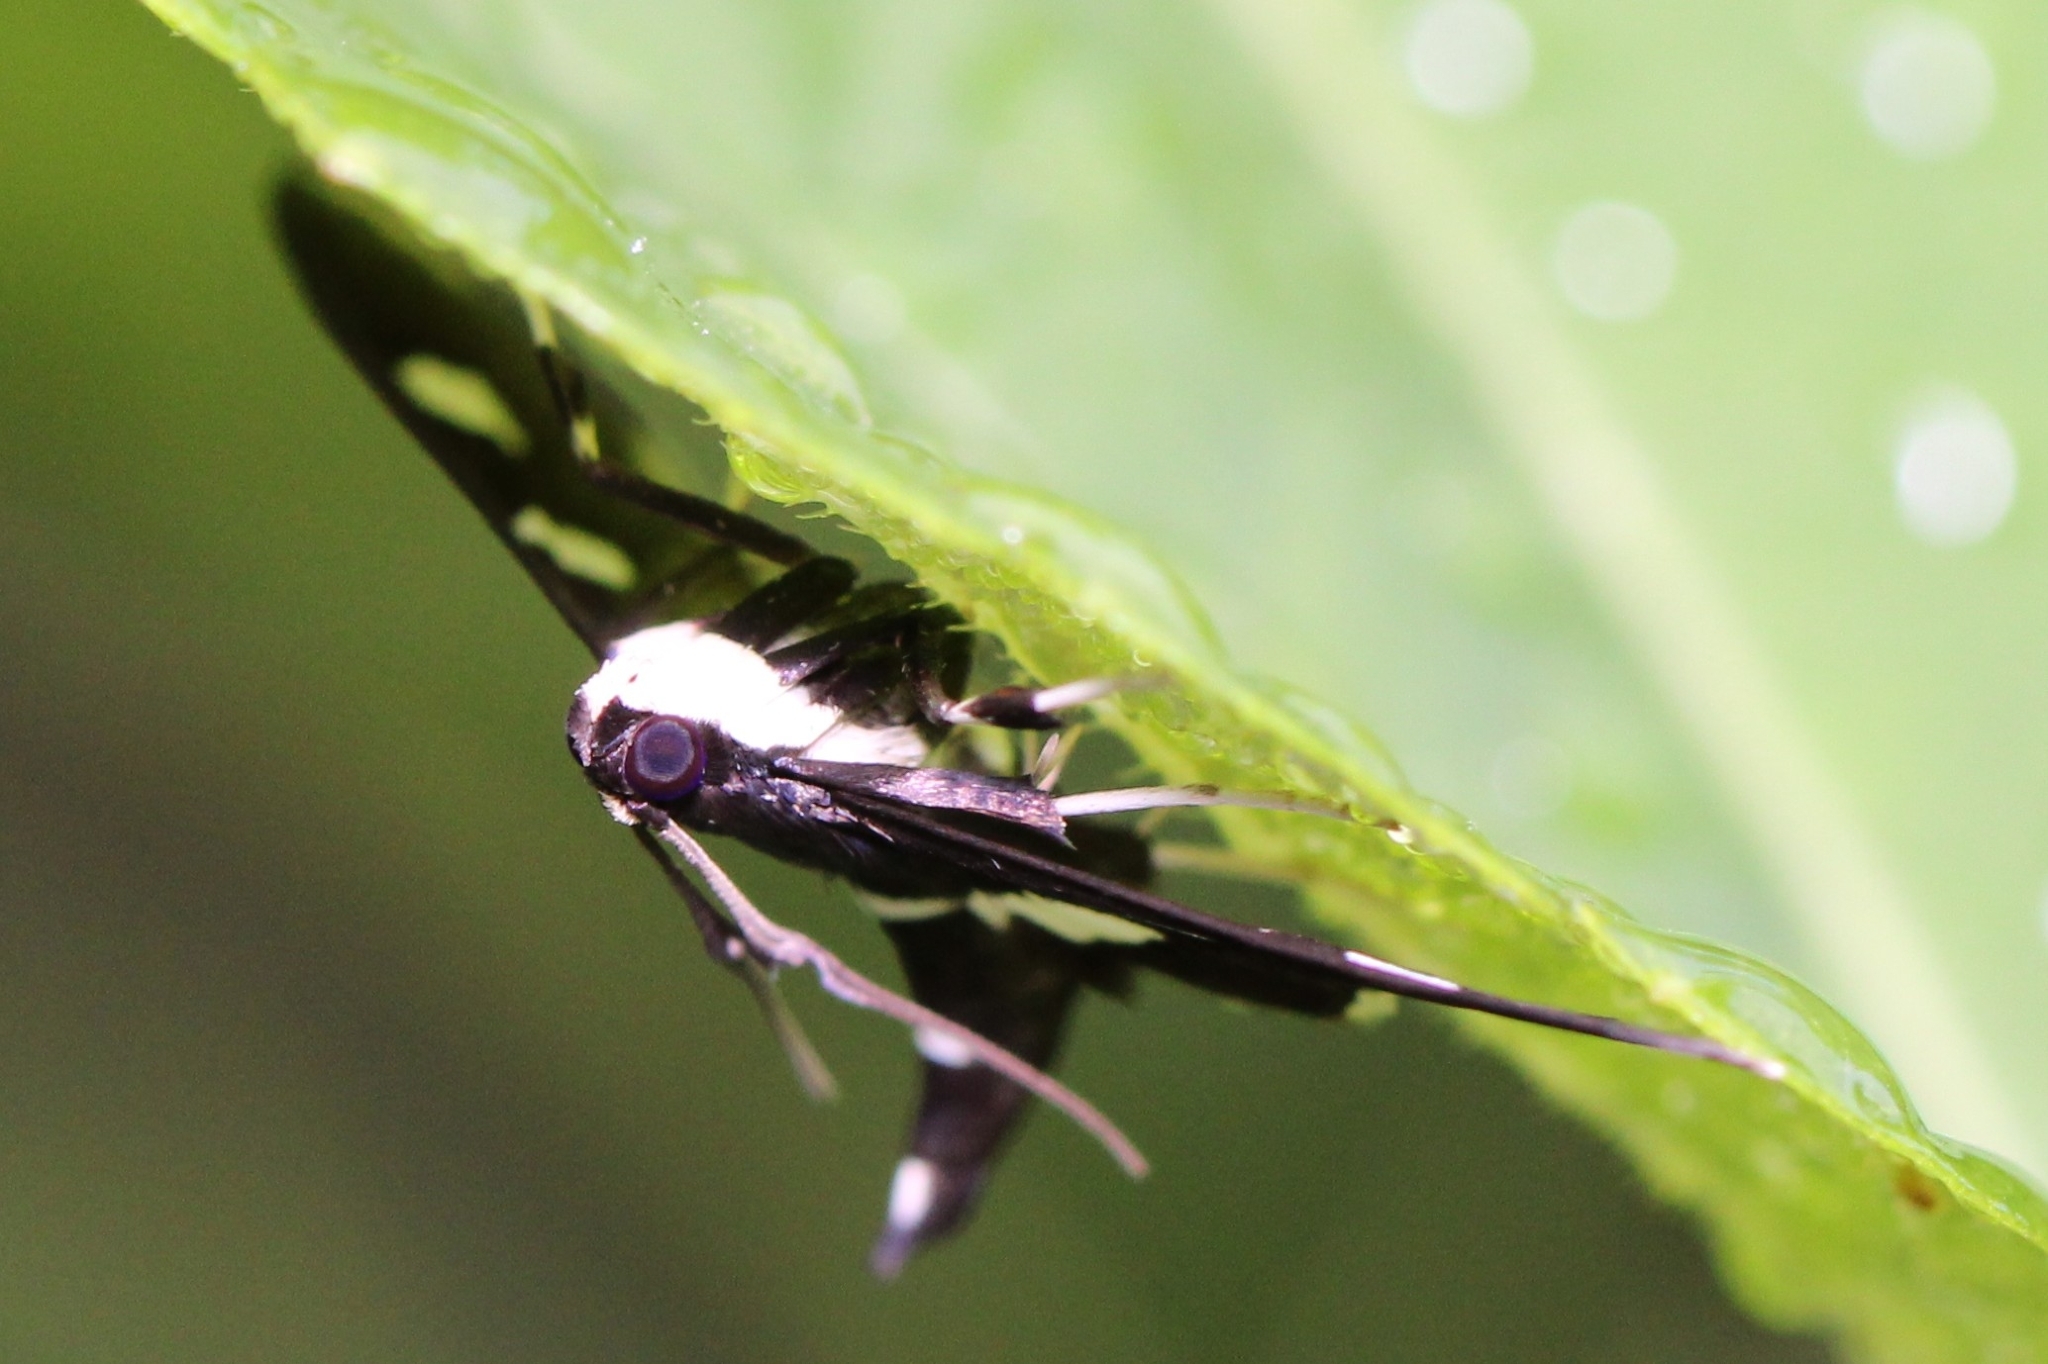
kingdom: Animalia
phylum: Arthropoda
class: Insecta
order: Lepidoptera
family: Crambidae
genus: Desmia
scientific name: Desmia
